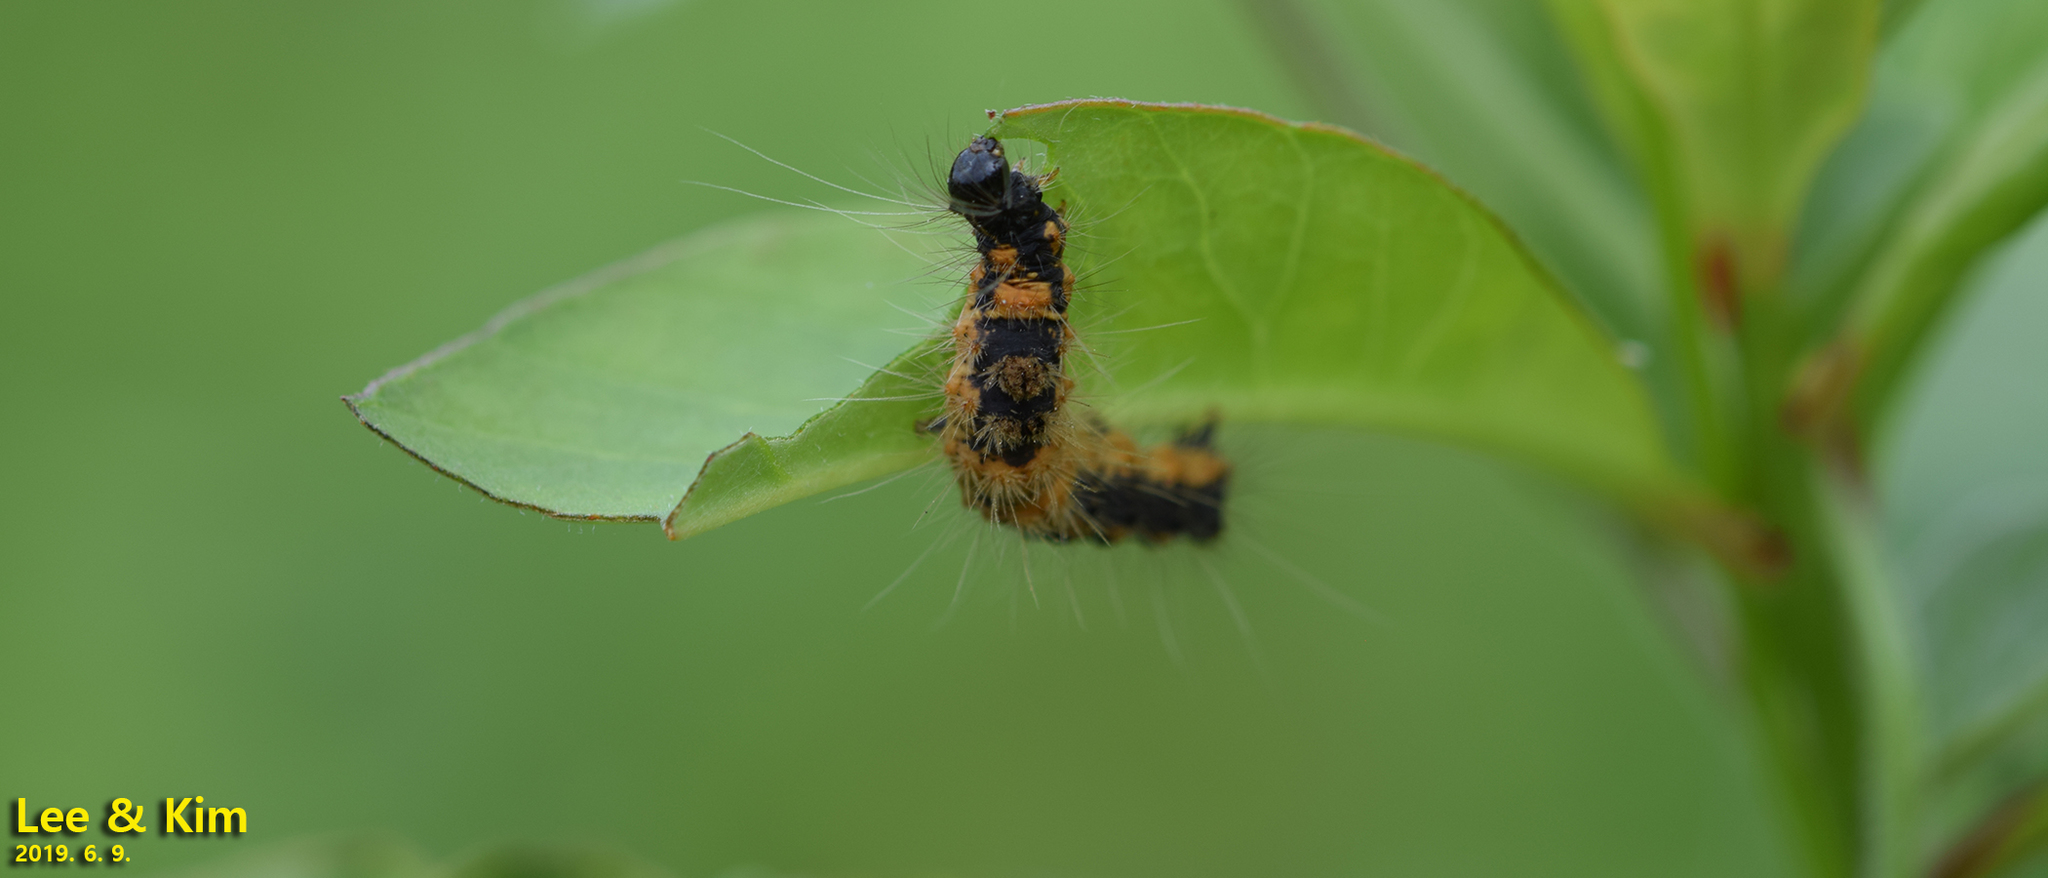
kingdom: Animalia
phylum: Arthropoda
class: Insecta
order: Lepidoptera
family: Erebidae
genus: Euproctis
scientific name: Euproctis subflava
